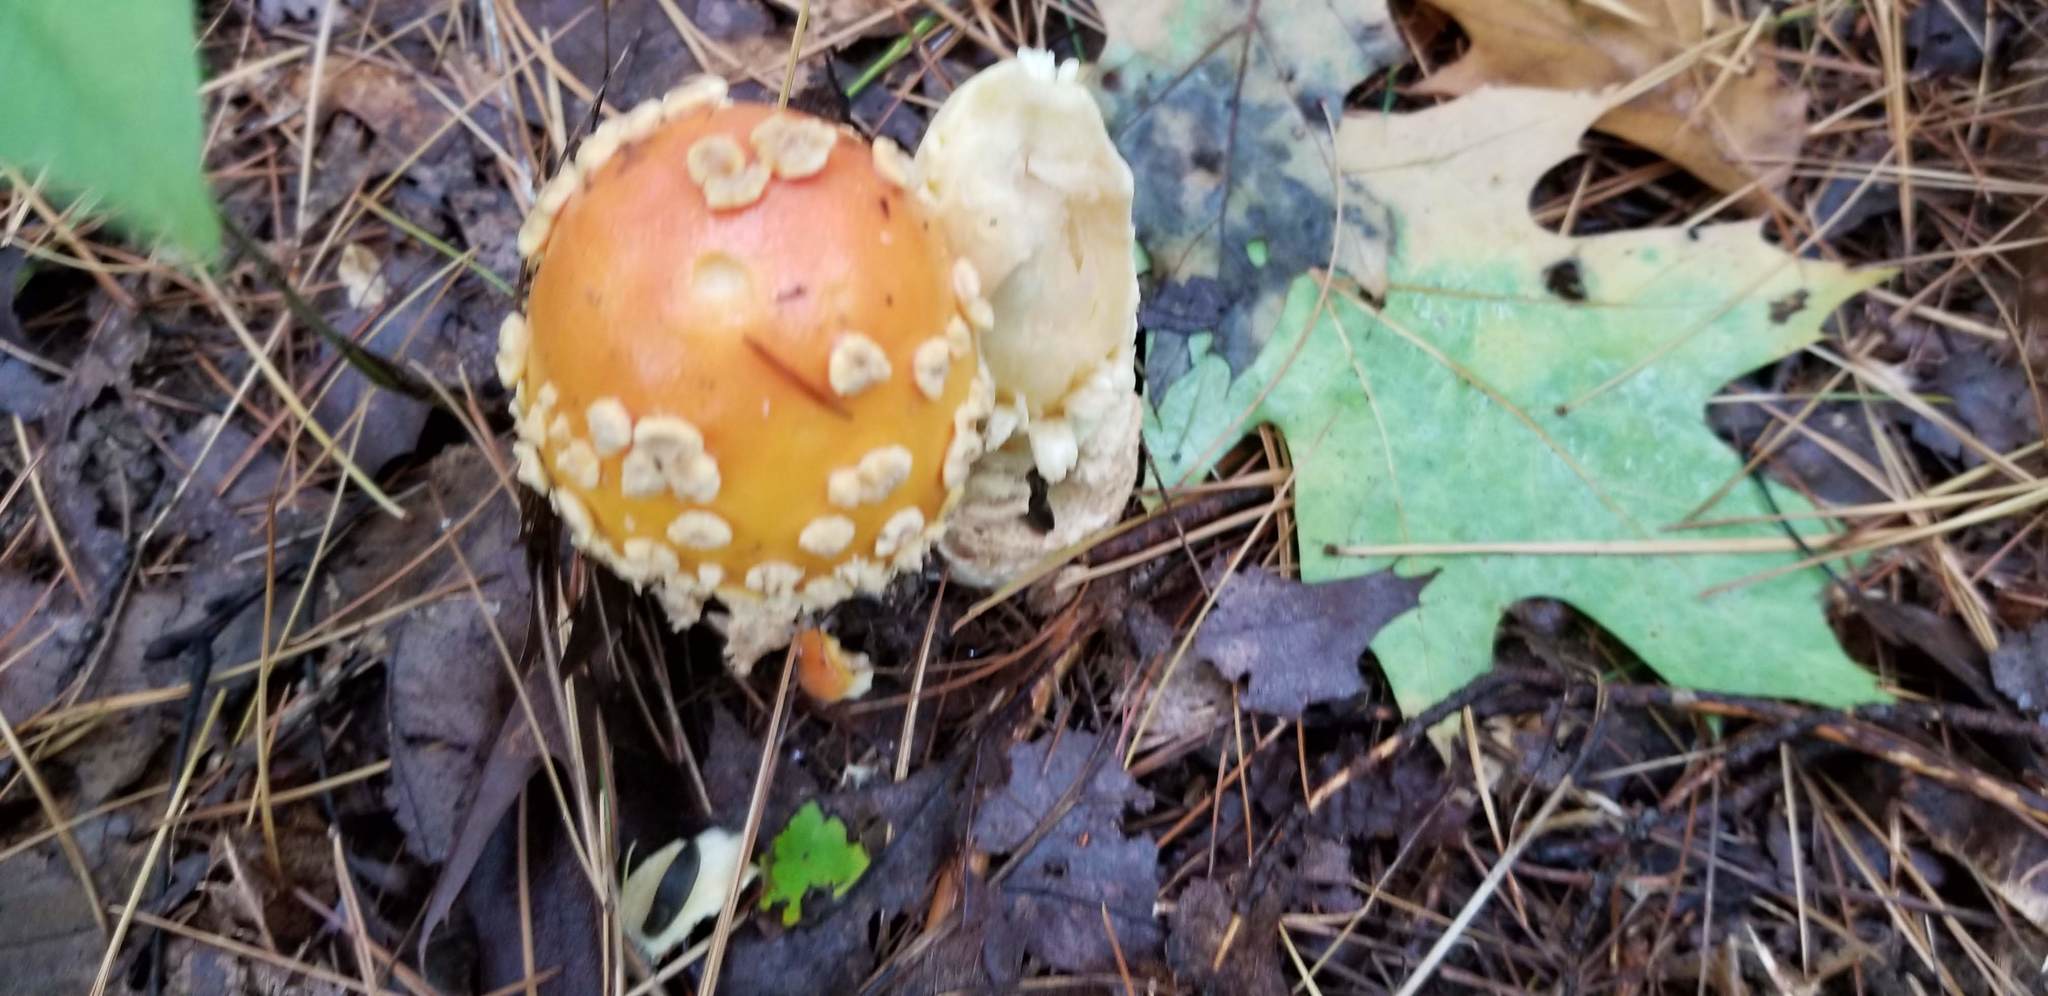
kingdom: Fungi
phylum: Basidiomycota
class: Agaricomycetes
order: Agaricales
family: Amanitaceae
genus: Amanita
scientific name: Amanita muscaria
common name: Fly agaric
